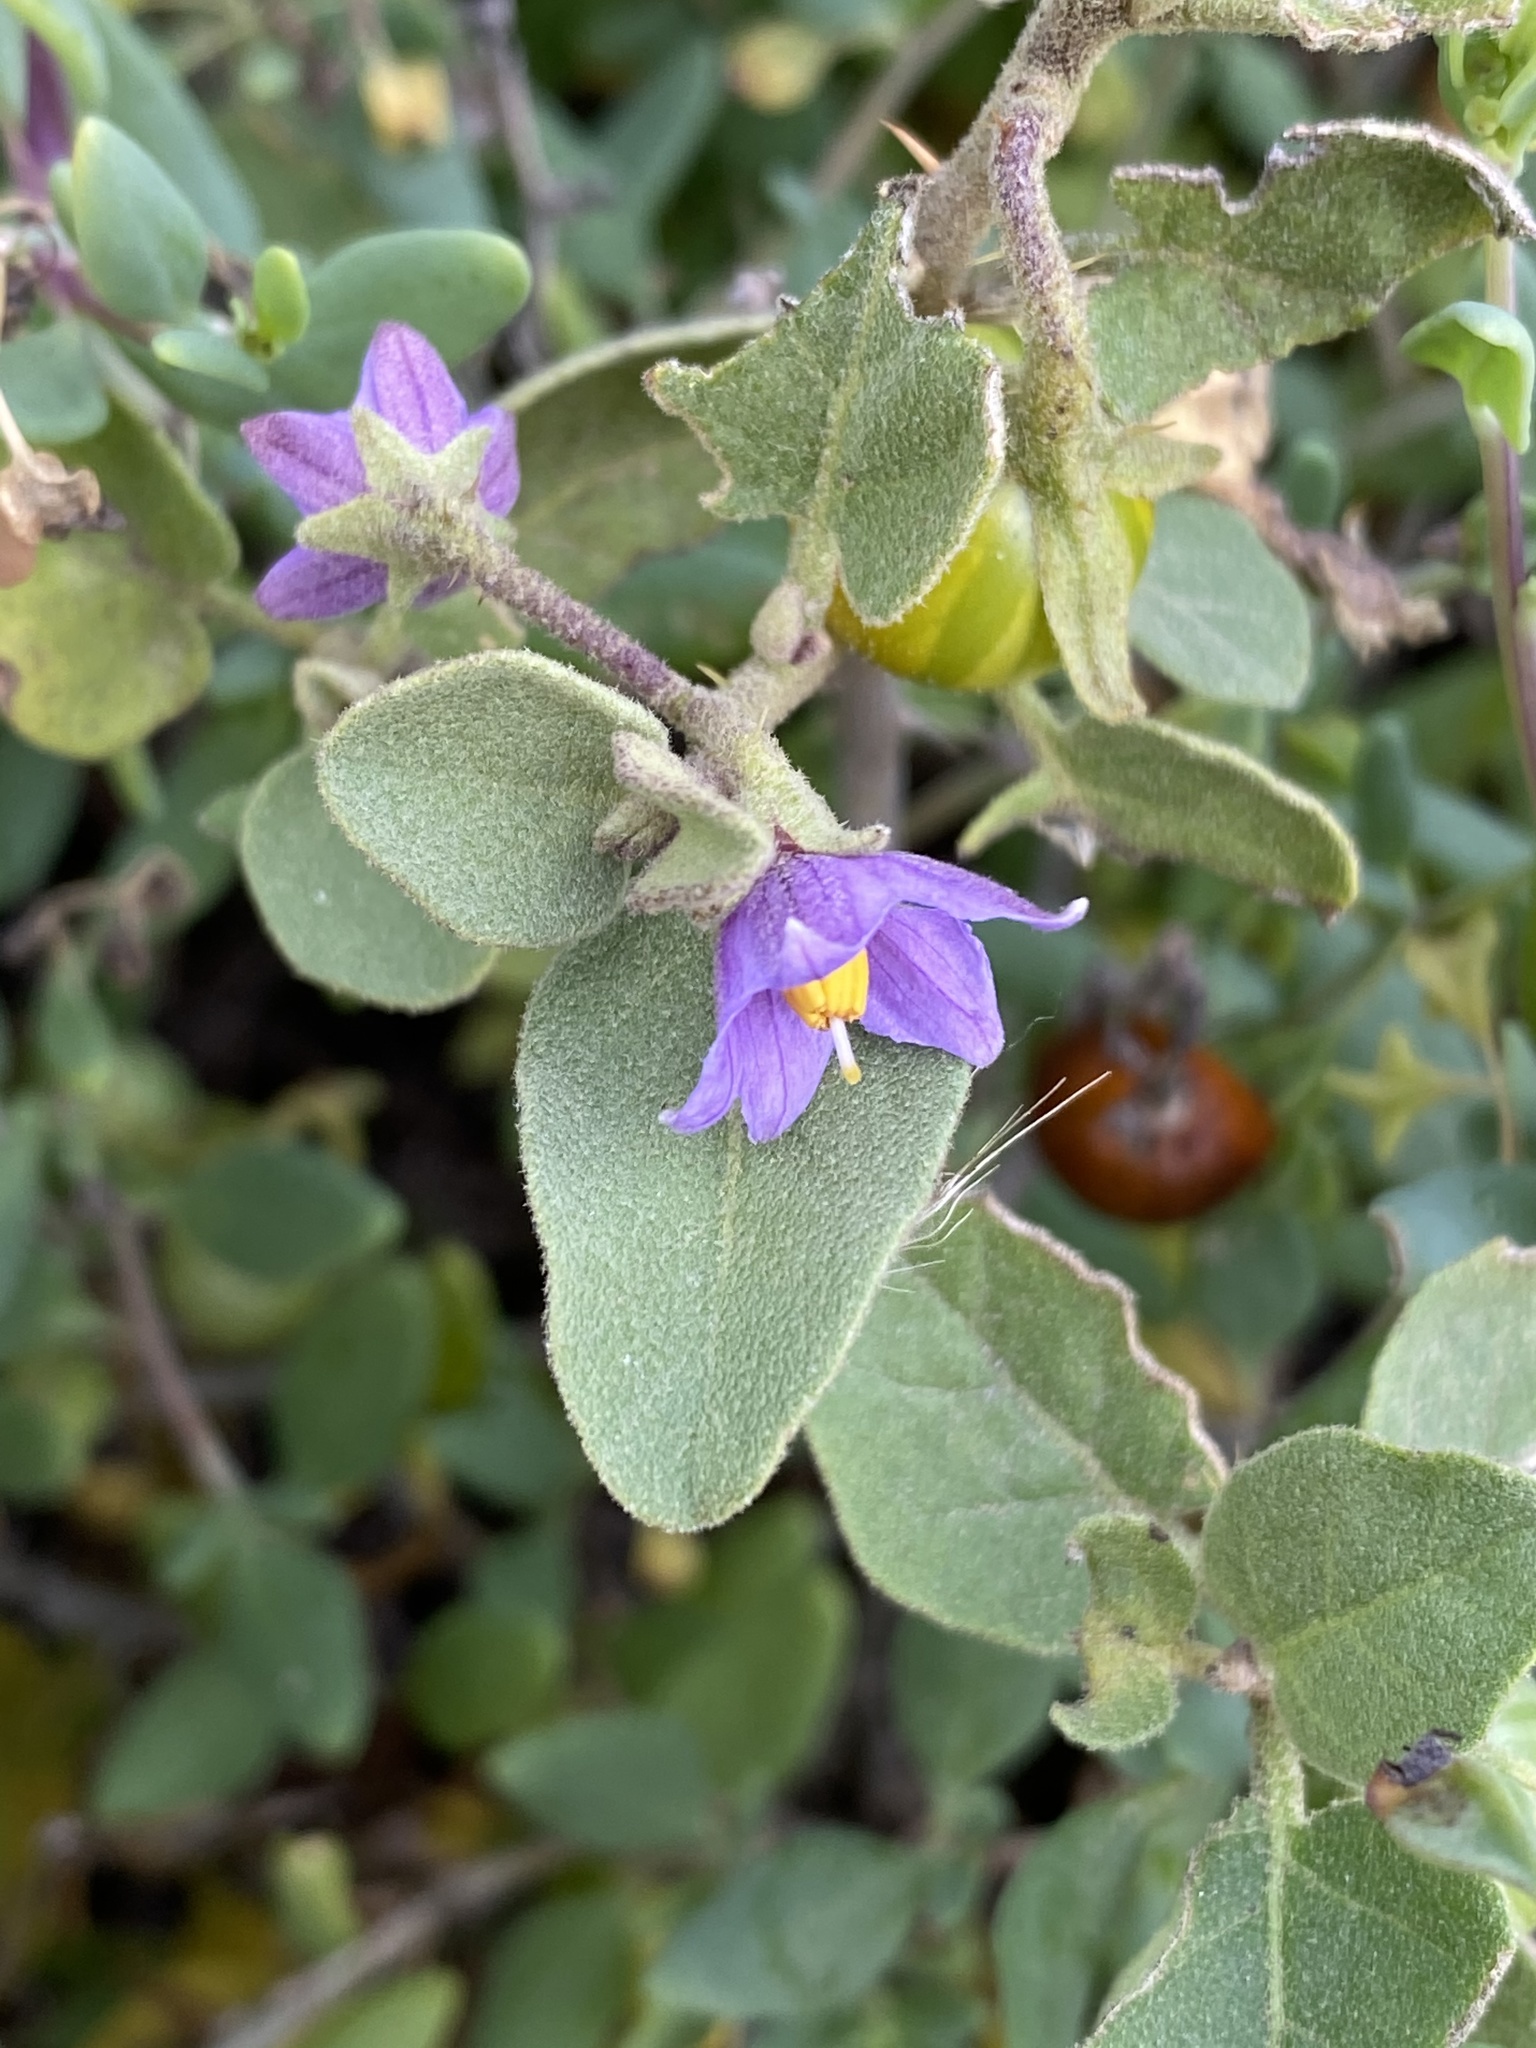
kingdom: Plantae
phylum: Tracheophyta
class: Magnoliopsida
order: Solanales
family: Solanaceae
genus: Solanum
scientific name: Solanum tomentosum
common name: Wild aubergine
